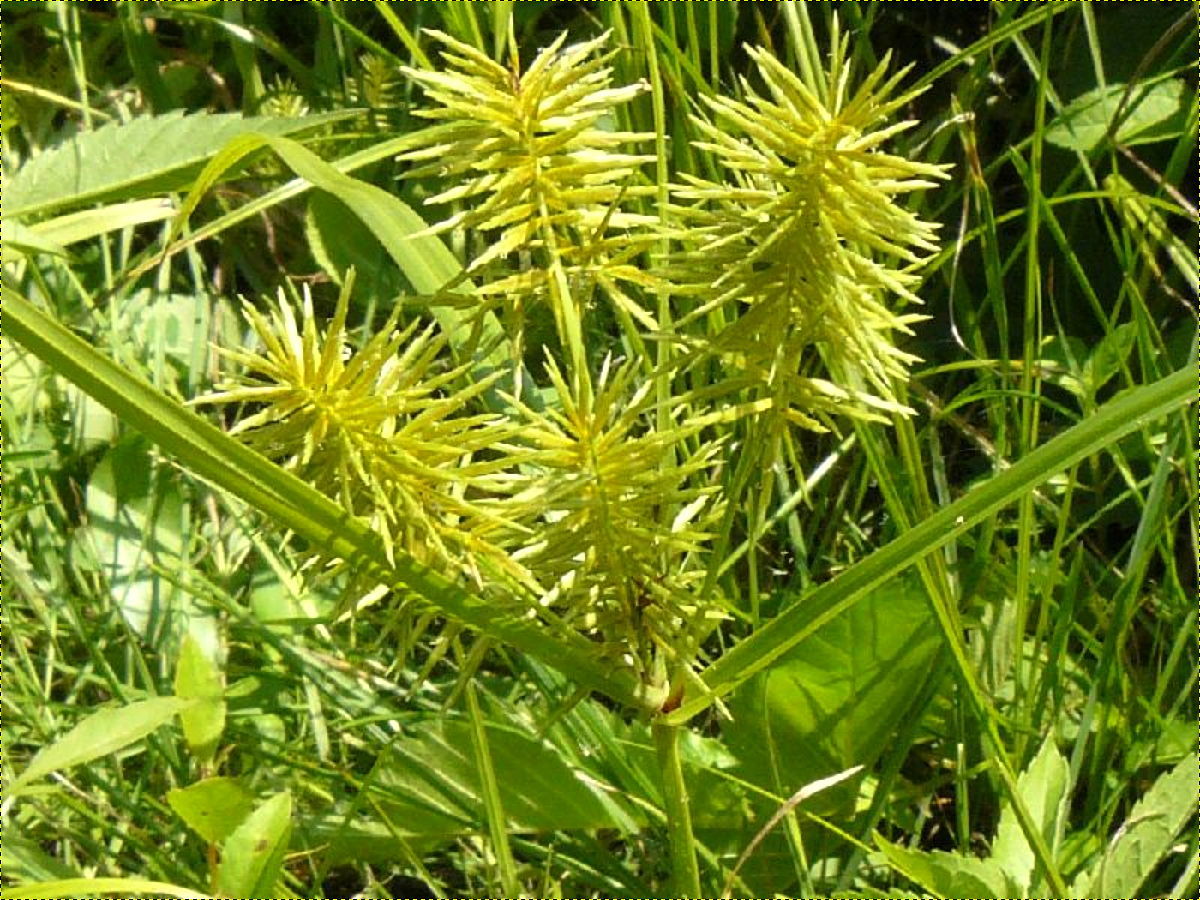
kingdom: Plantae
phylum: Tracheophyta
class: Liliopsida
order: Poales
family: Cyperaceae
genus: Cyperus
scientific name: Cyperus strigosus
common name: False nutsedge
